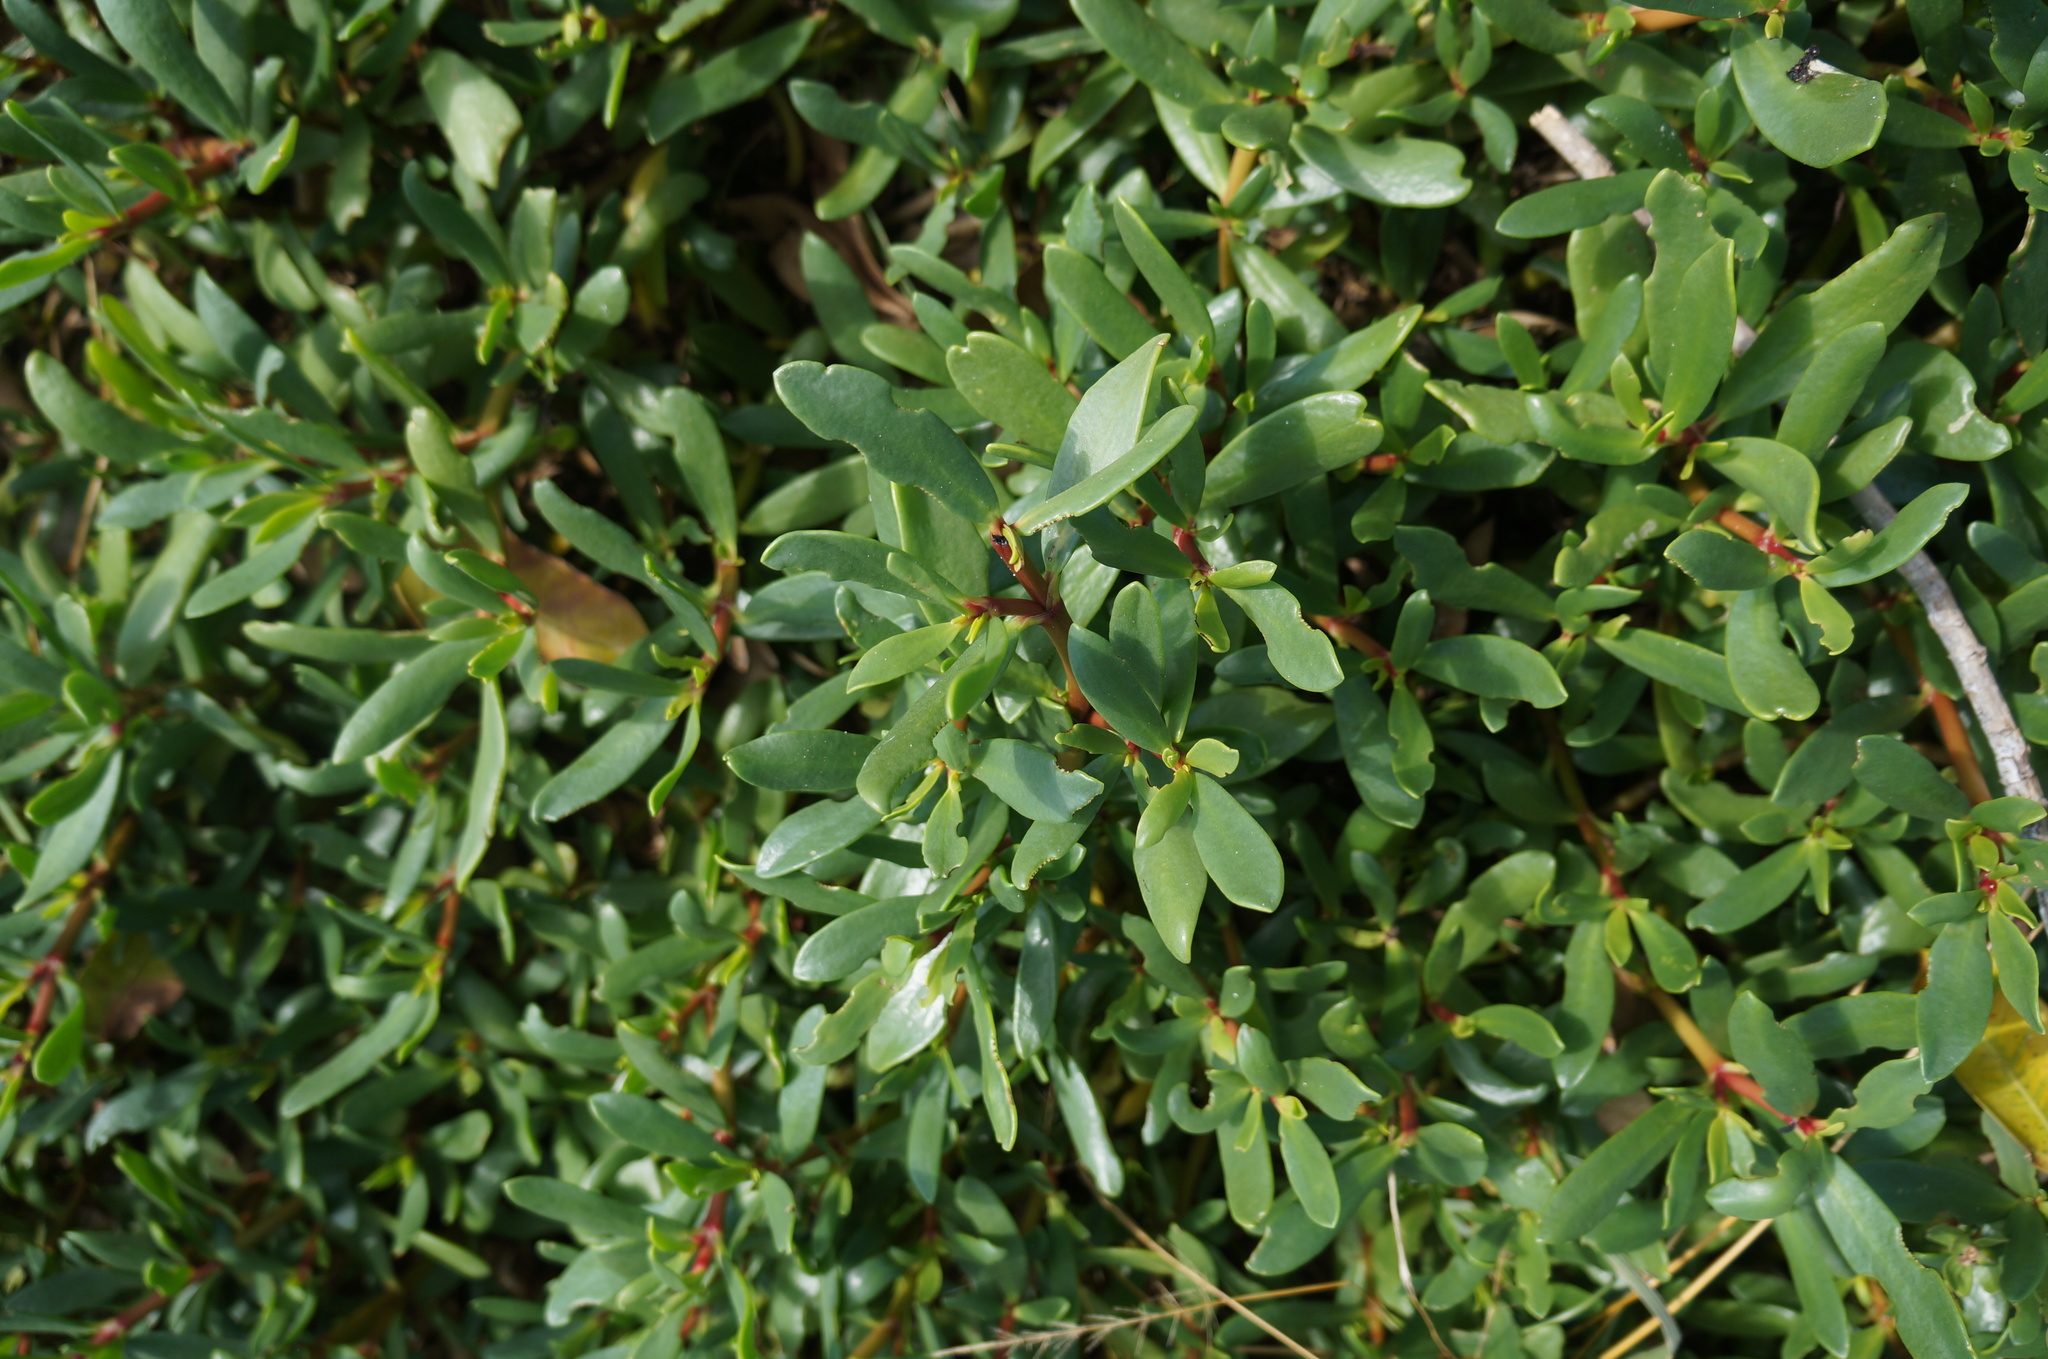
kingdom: Plantae
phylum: Tracheophyta
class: Magnoliopsida
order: Caryophyllales
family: Aizoaceae
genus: Sesuvium
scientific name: Sesuvium portulacastrum
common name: Sea-purslane
